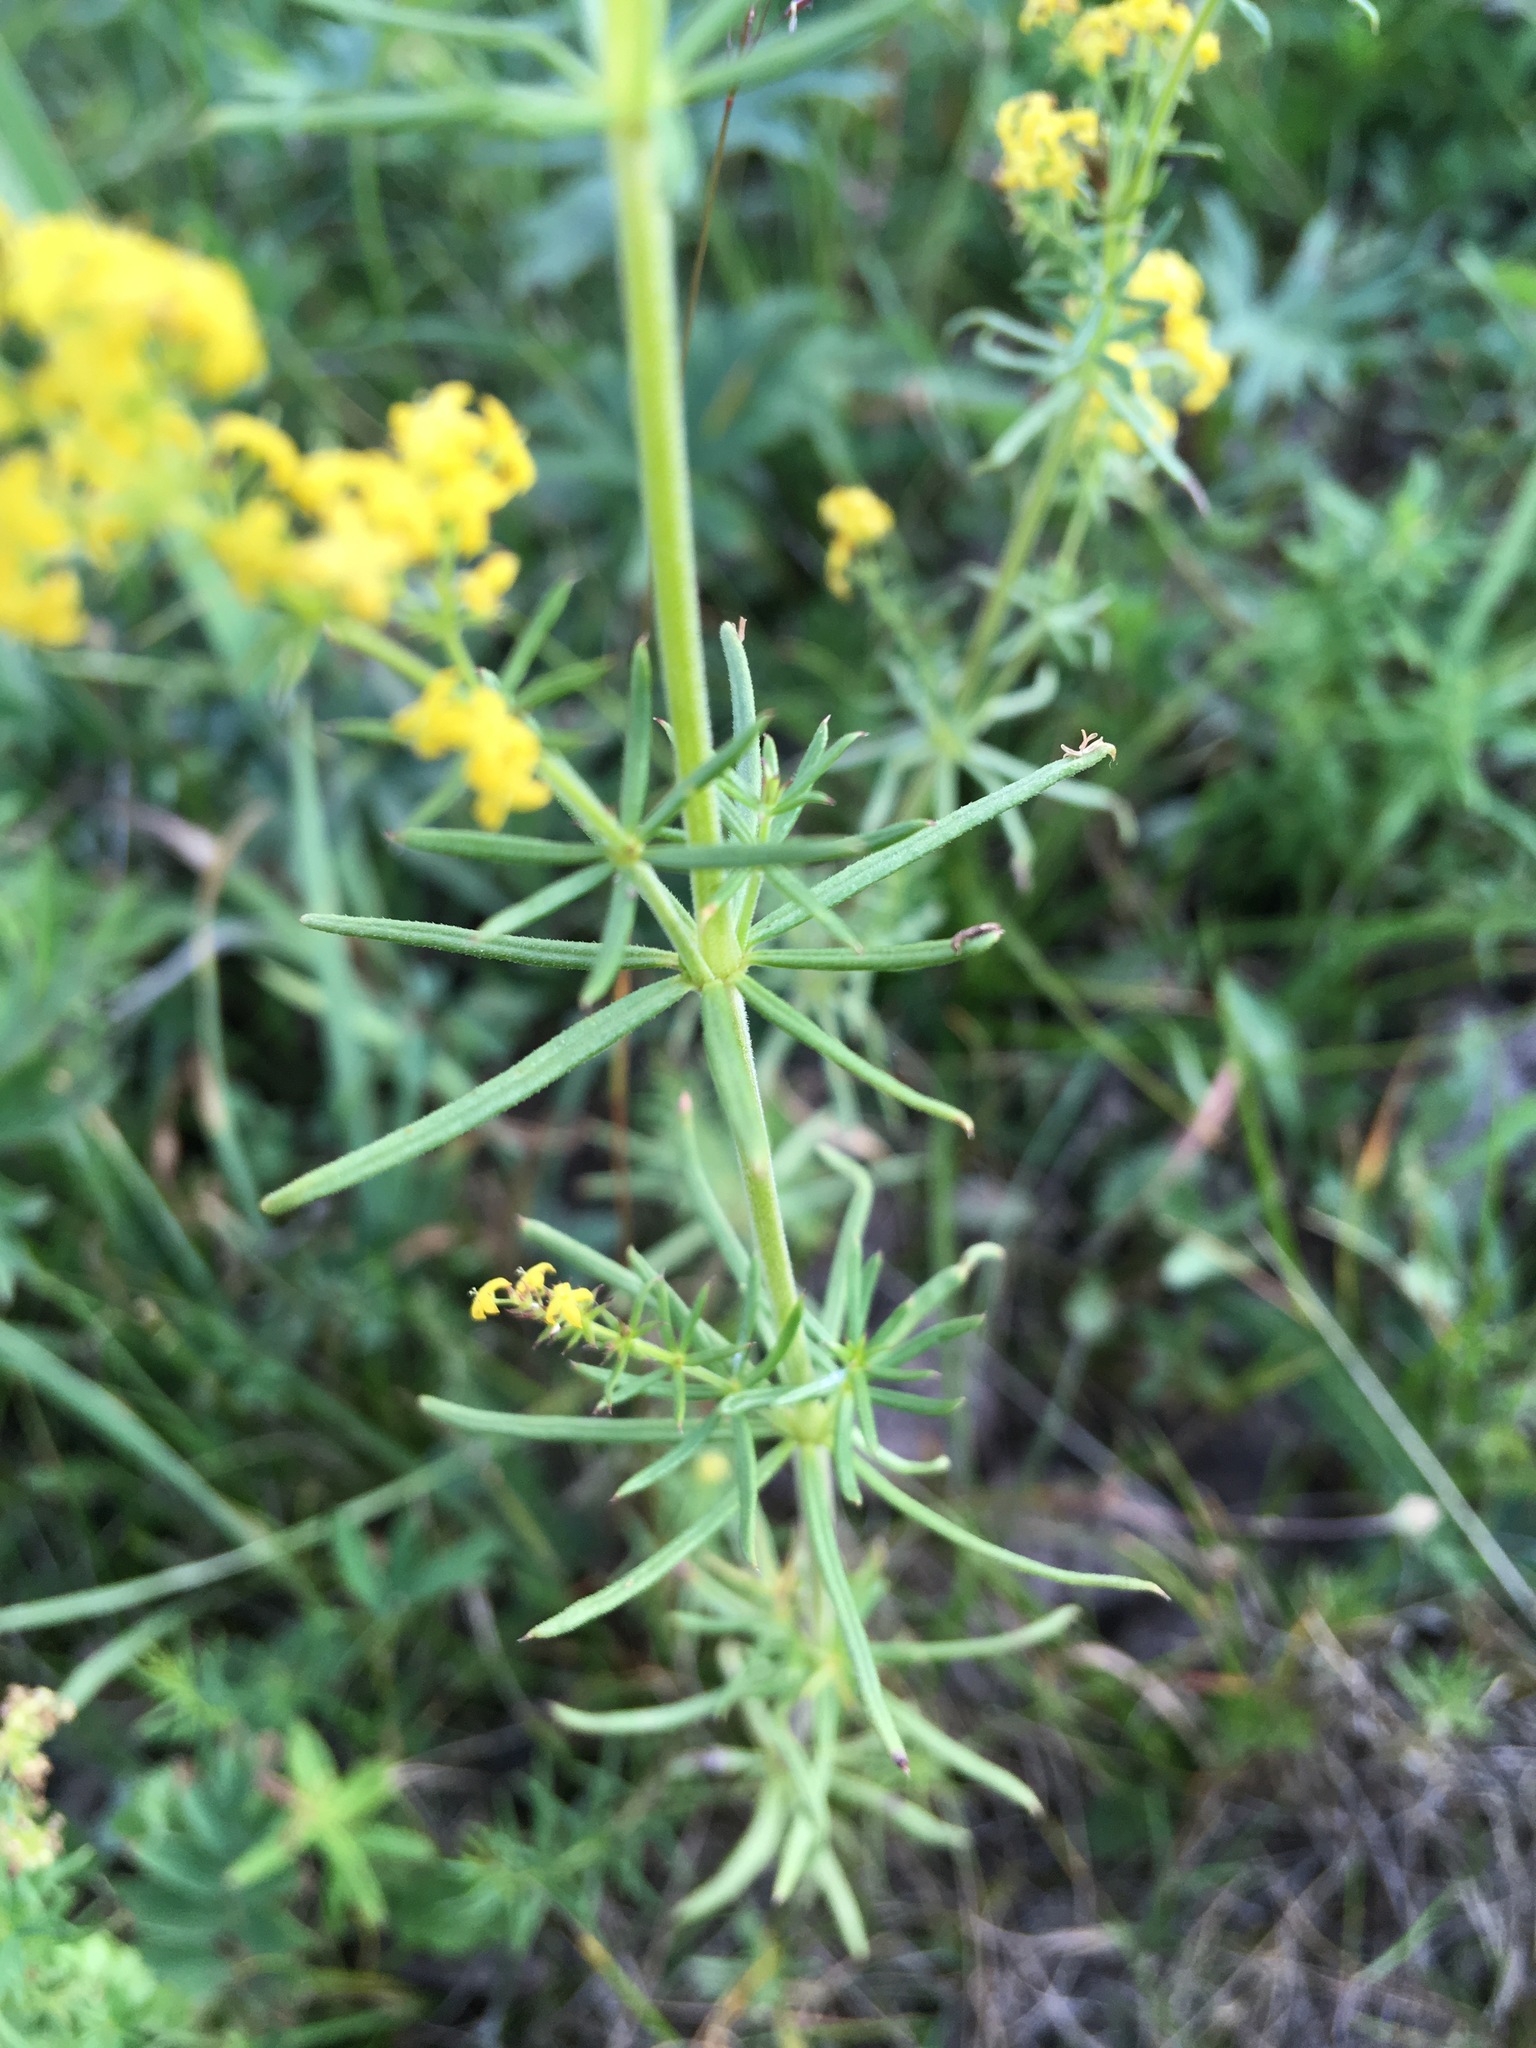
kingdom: Plantae
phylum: Tracheophyta
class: Magnoliopsida
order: Gentianales
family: Rubiaceae
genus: Galium
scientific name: Galium verum
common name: Lady's bedstraw
